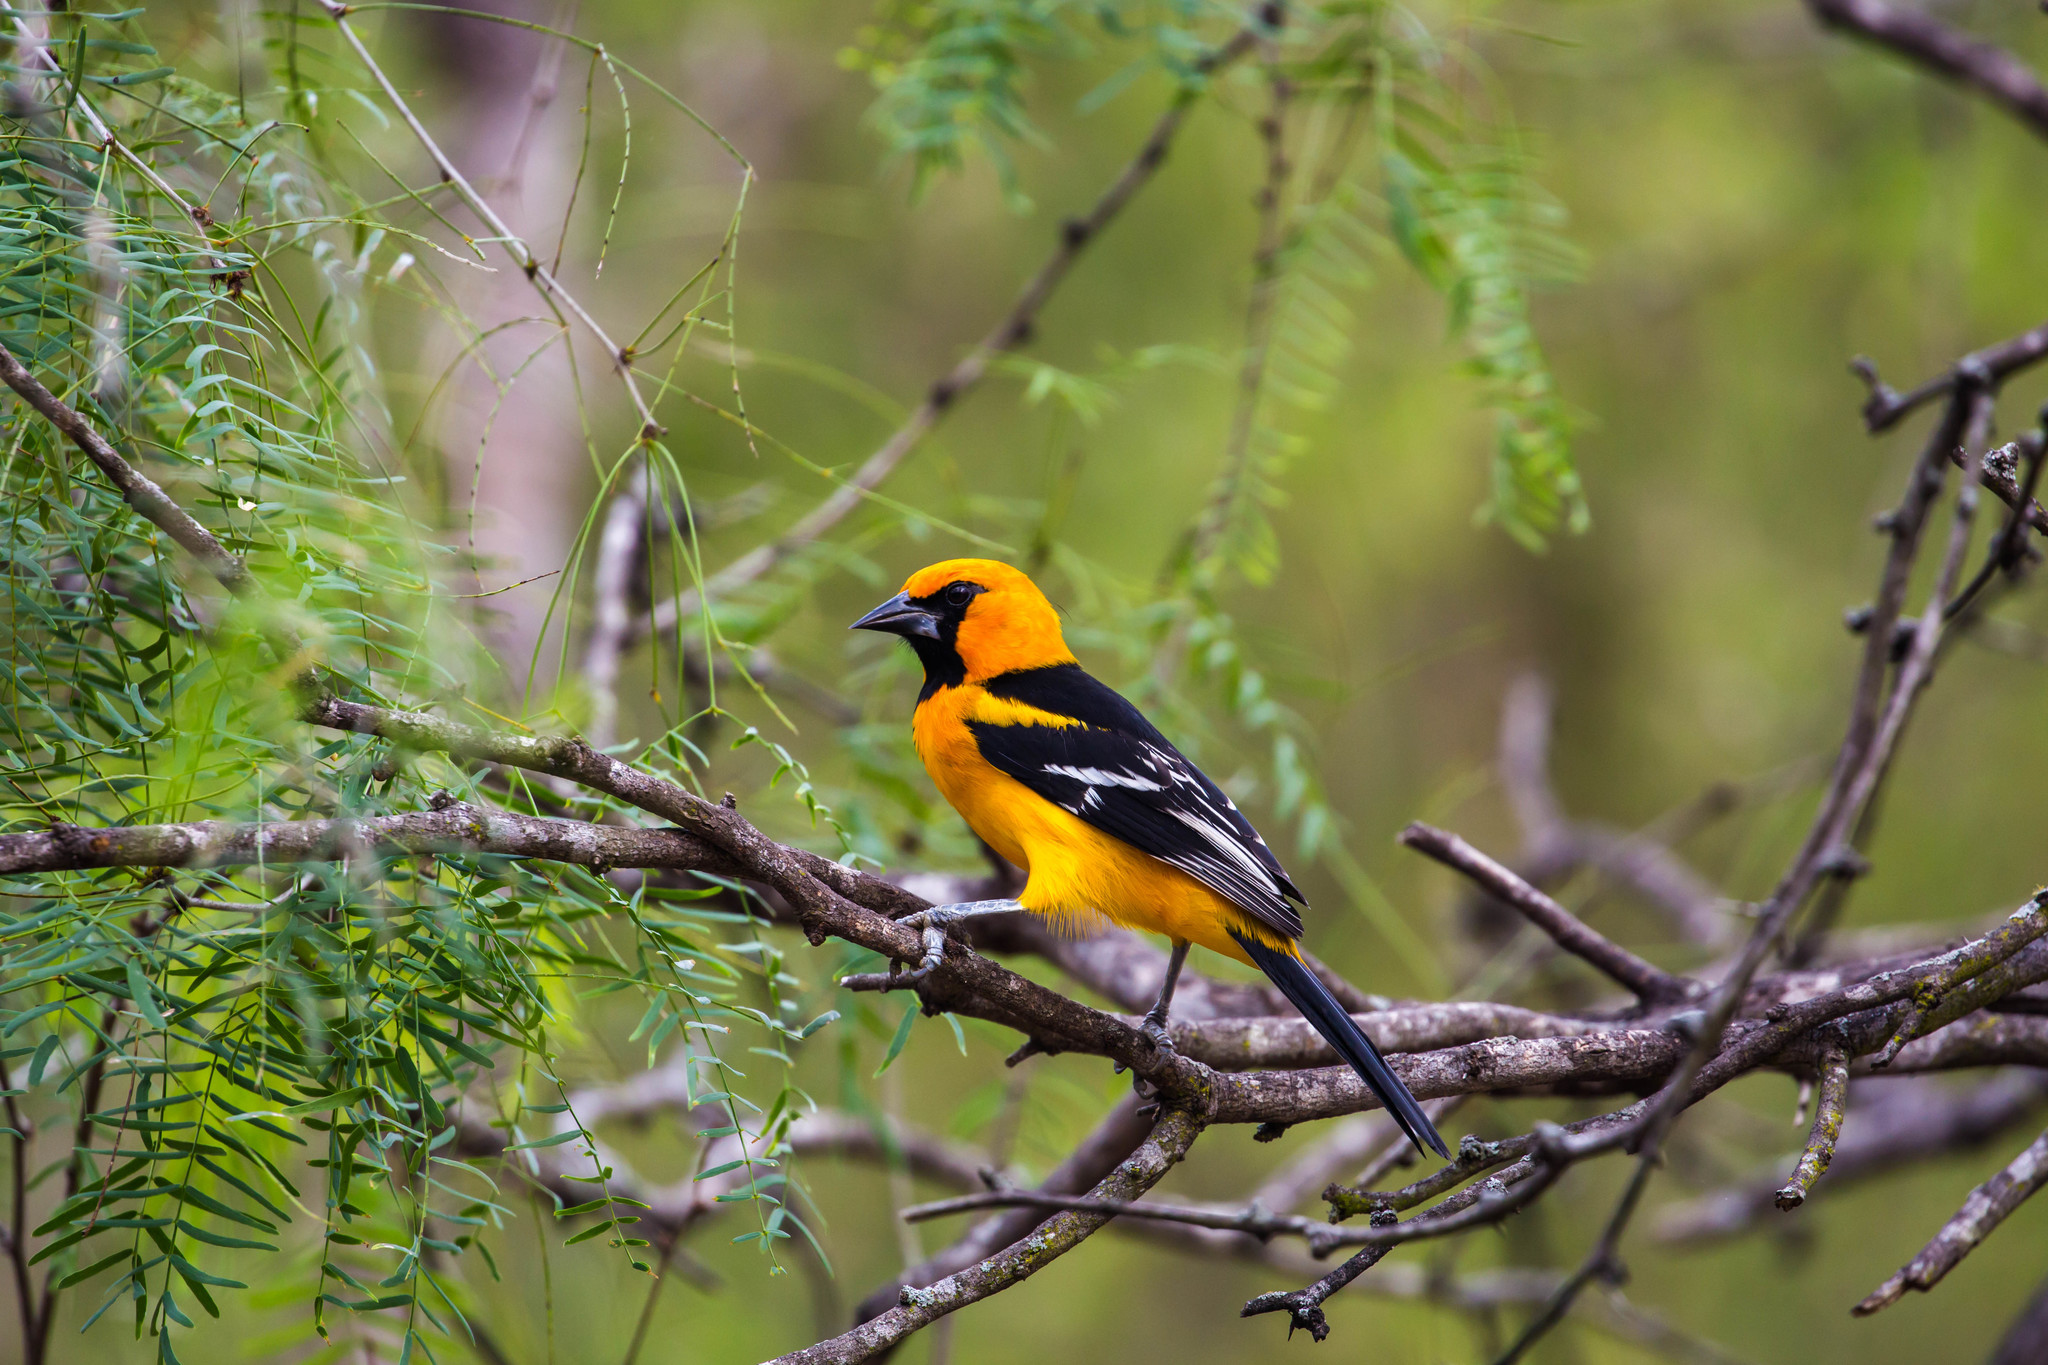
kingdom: Animalia
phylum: Chordata
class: Aves
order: Passeriformes
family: Icteridae
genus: Icterus
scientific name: Icterus gularis
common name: Altamira oriole
